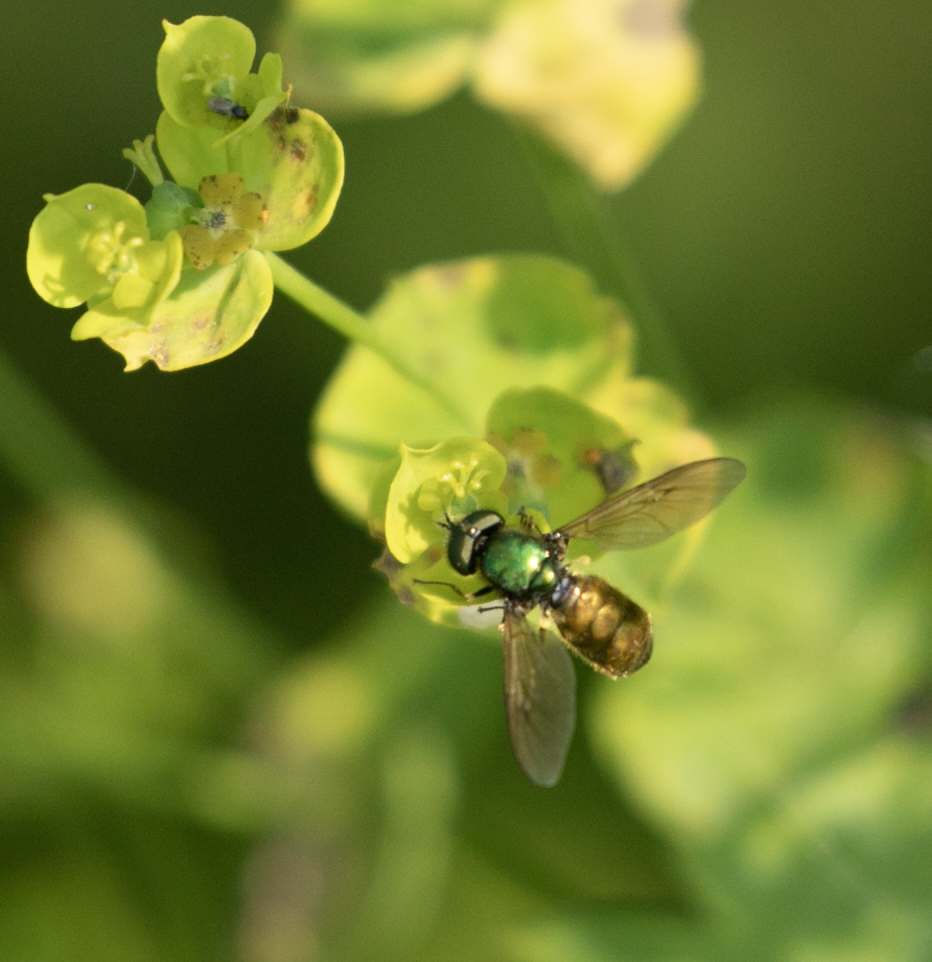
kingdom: Animalia
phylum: Arthropoda
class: Insecta
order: Diptera
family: Stratiomyidae
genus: Chloromyia
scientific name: Chloromyia formosa
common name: Soldier fly
